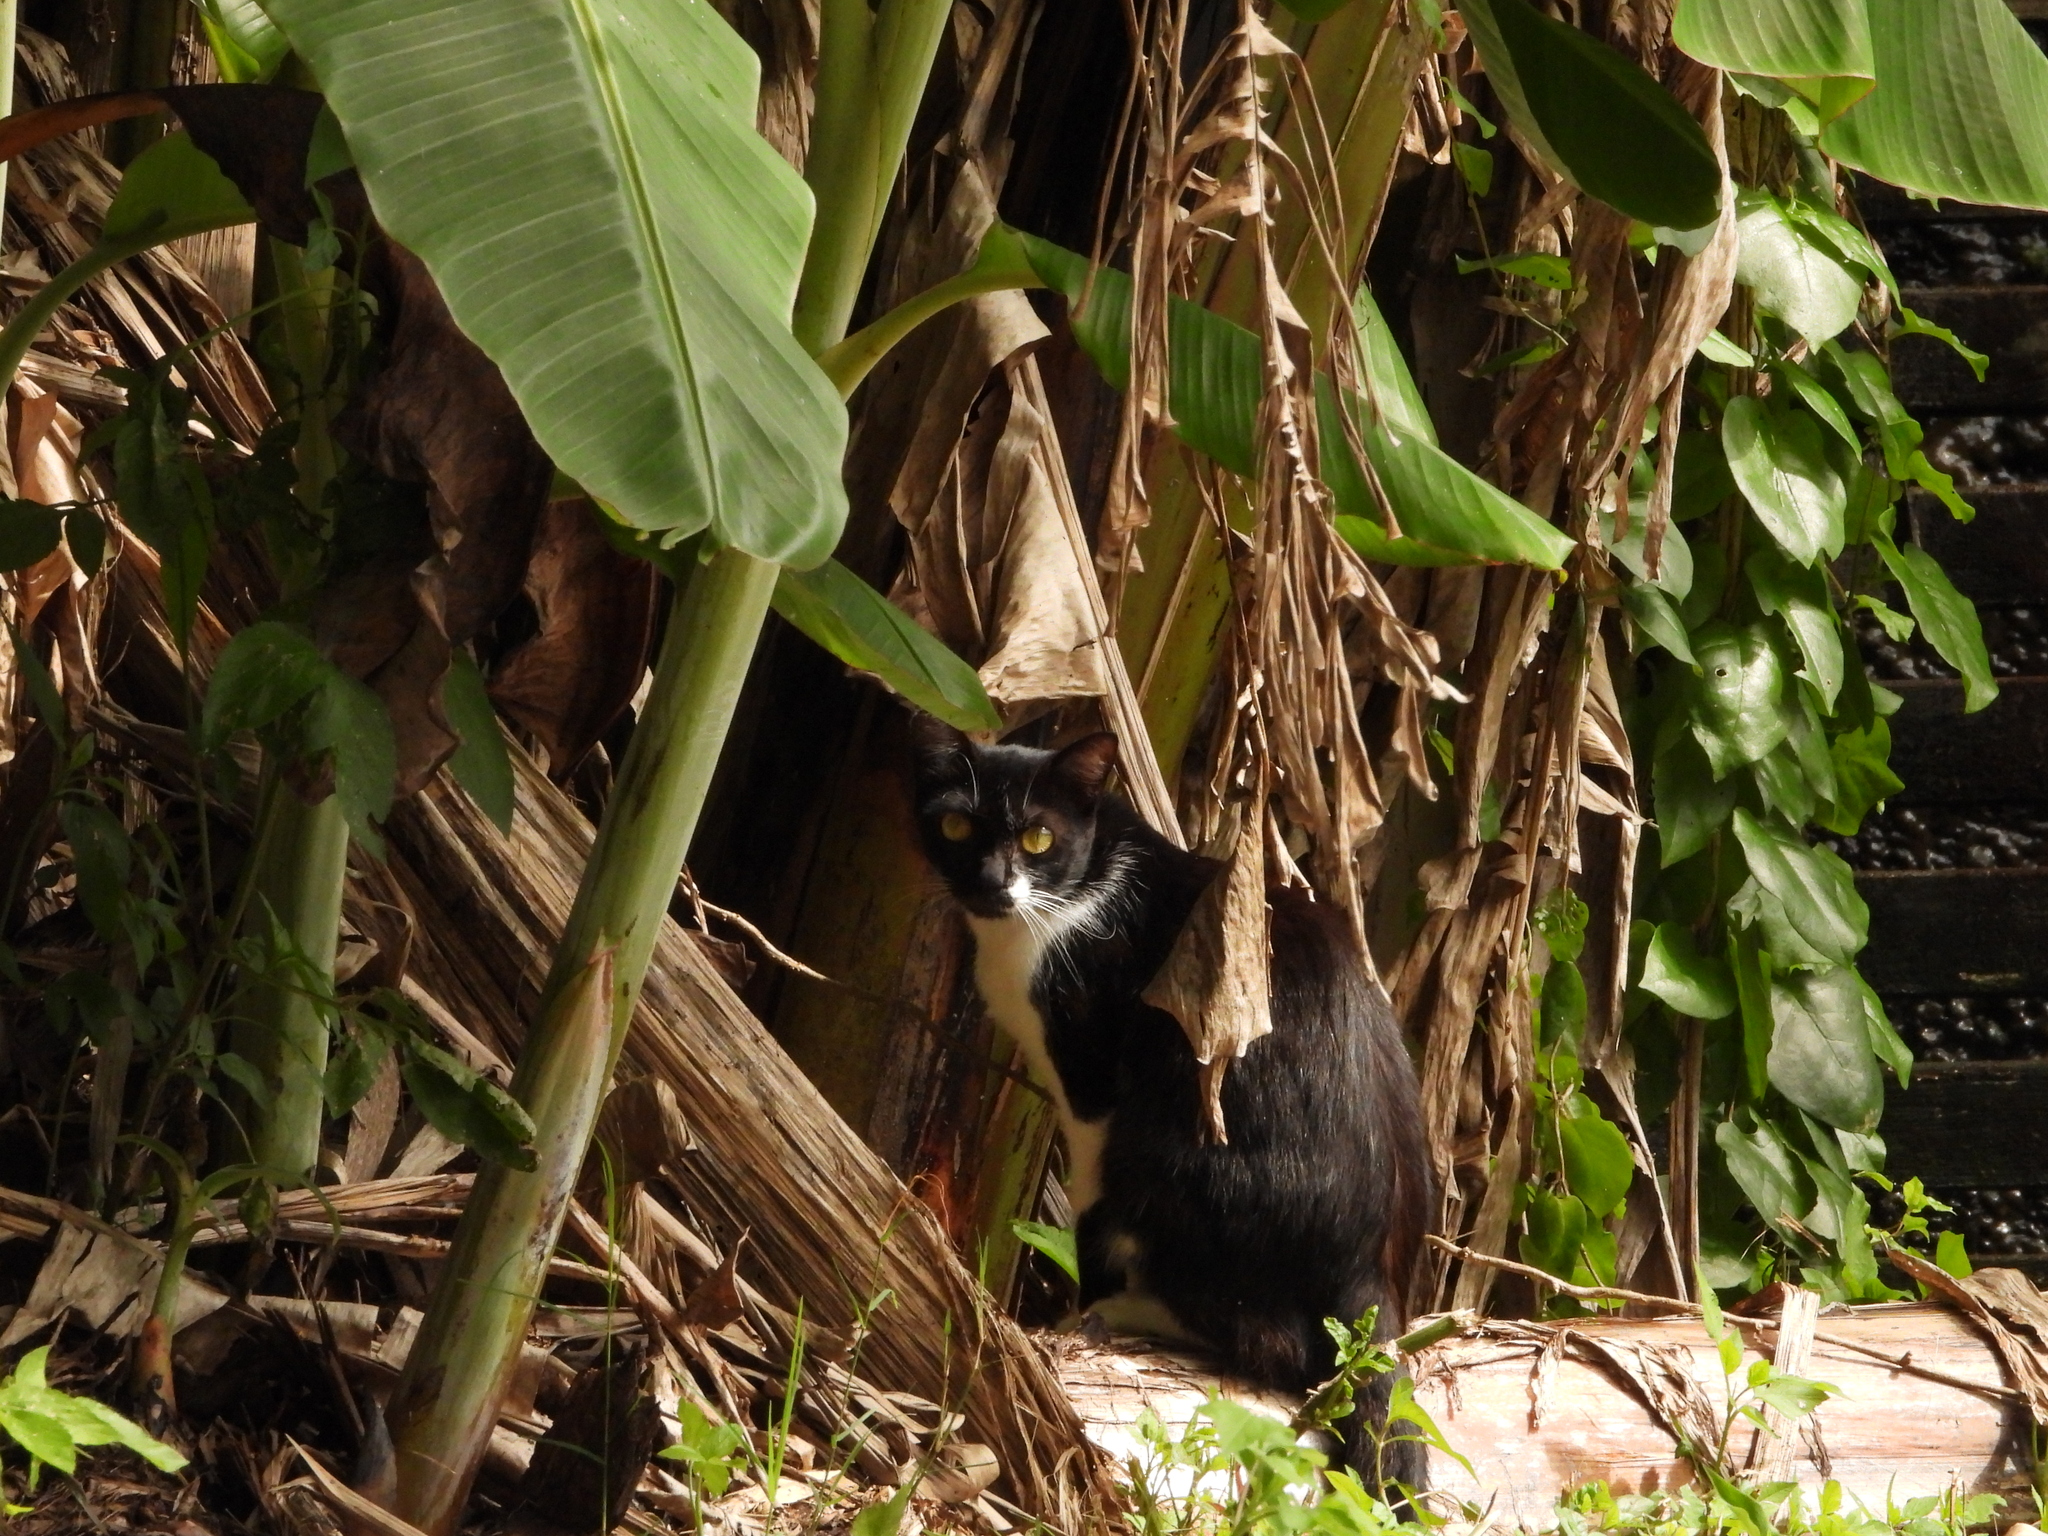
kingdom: Animalia
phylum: Chordata
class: Mammalia
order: Carnivora
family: Felidae
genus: Felis
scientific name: Felis catus
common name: Domestic cat
